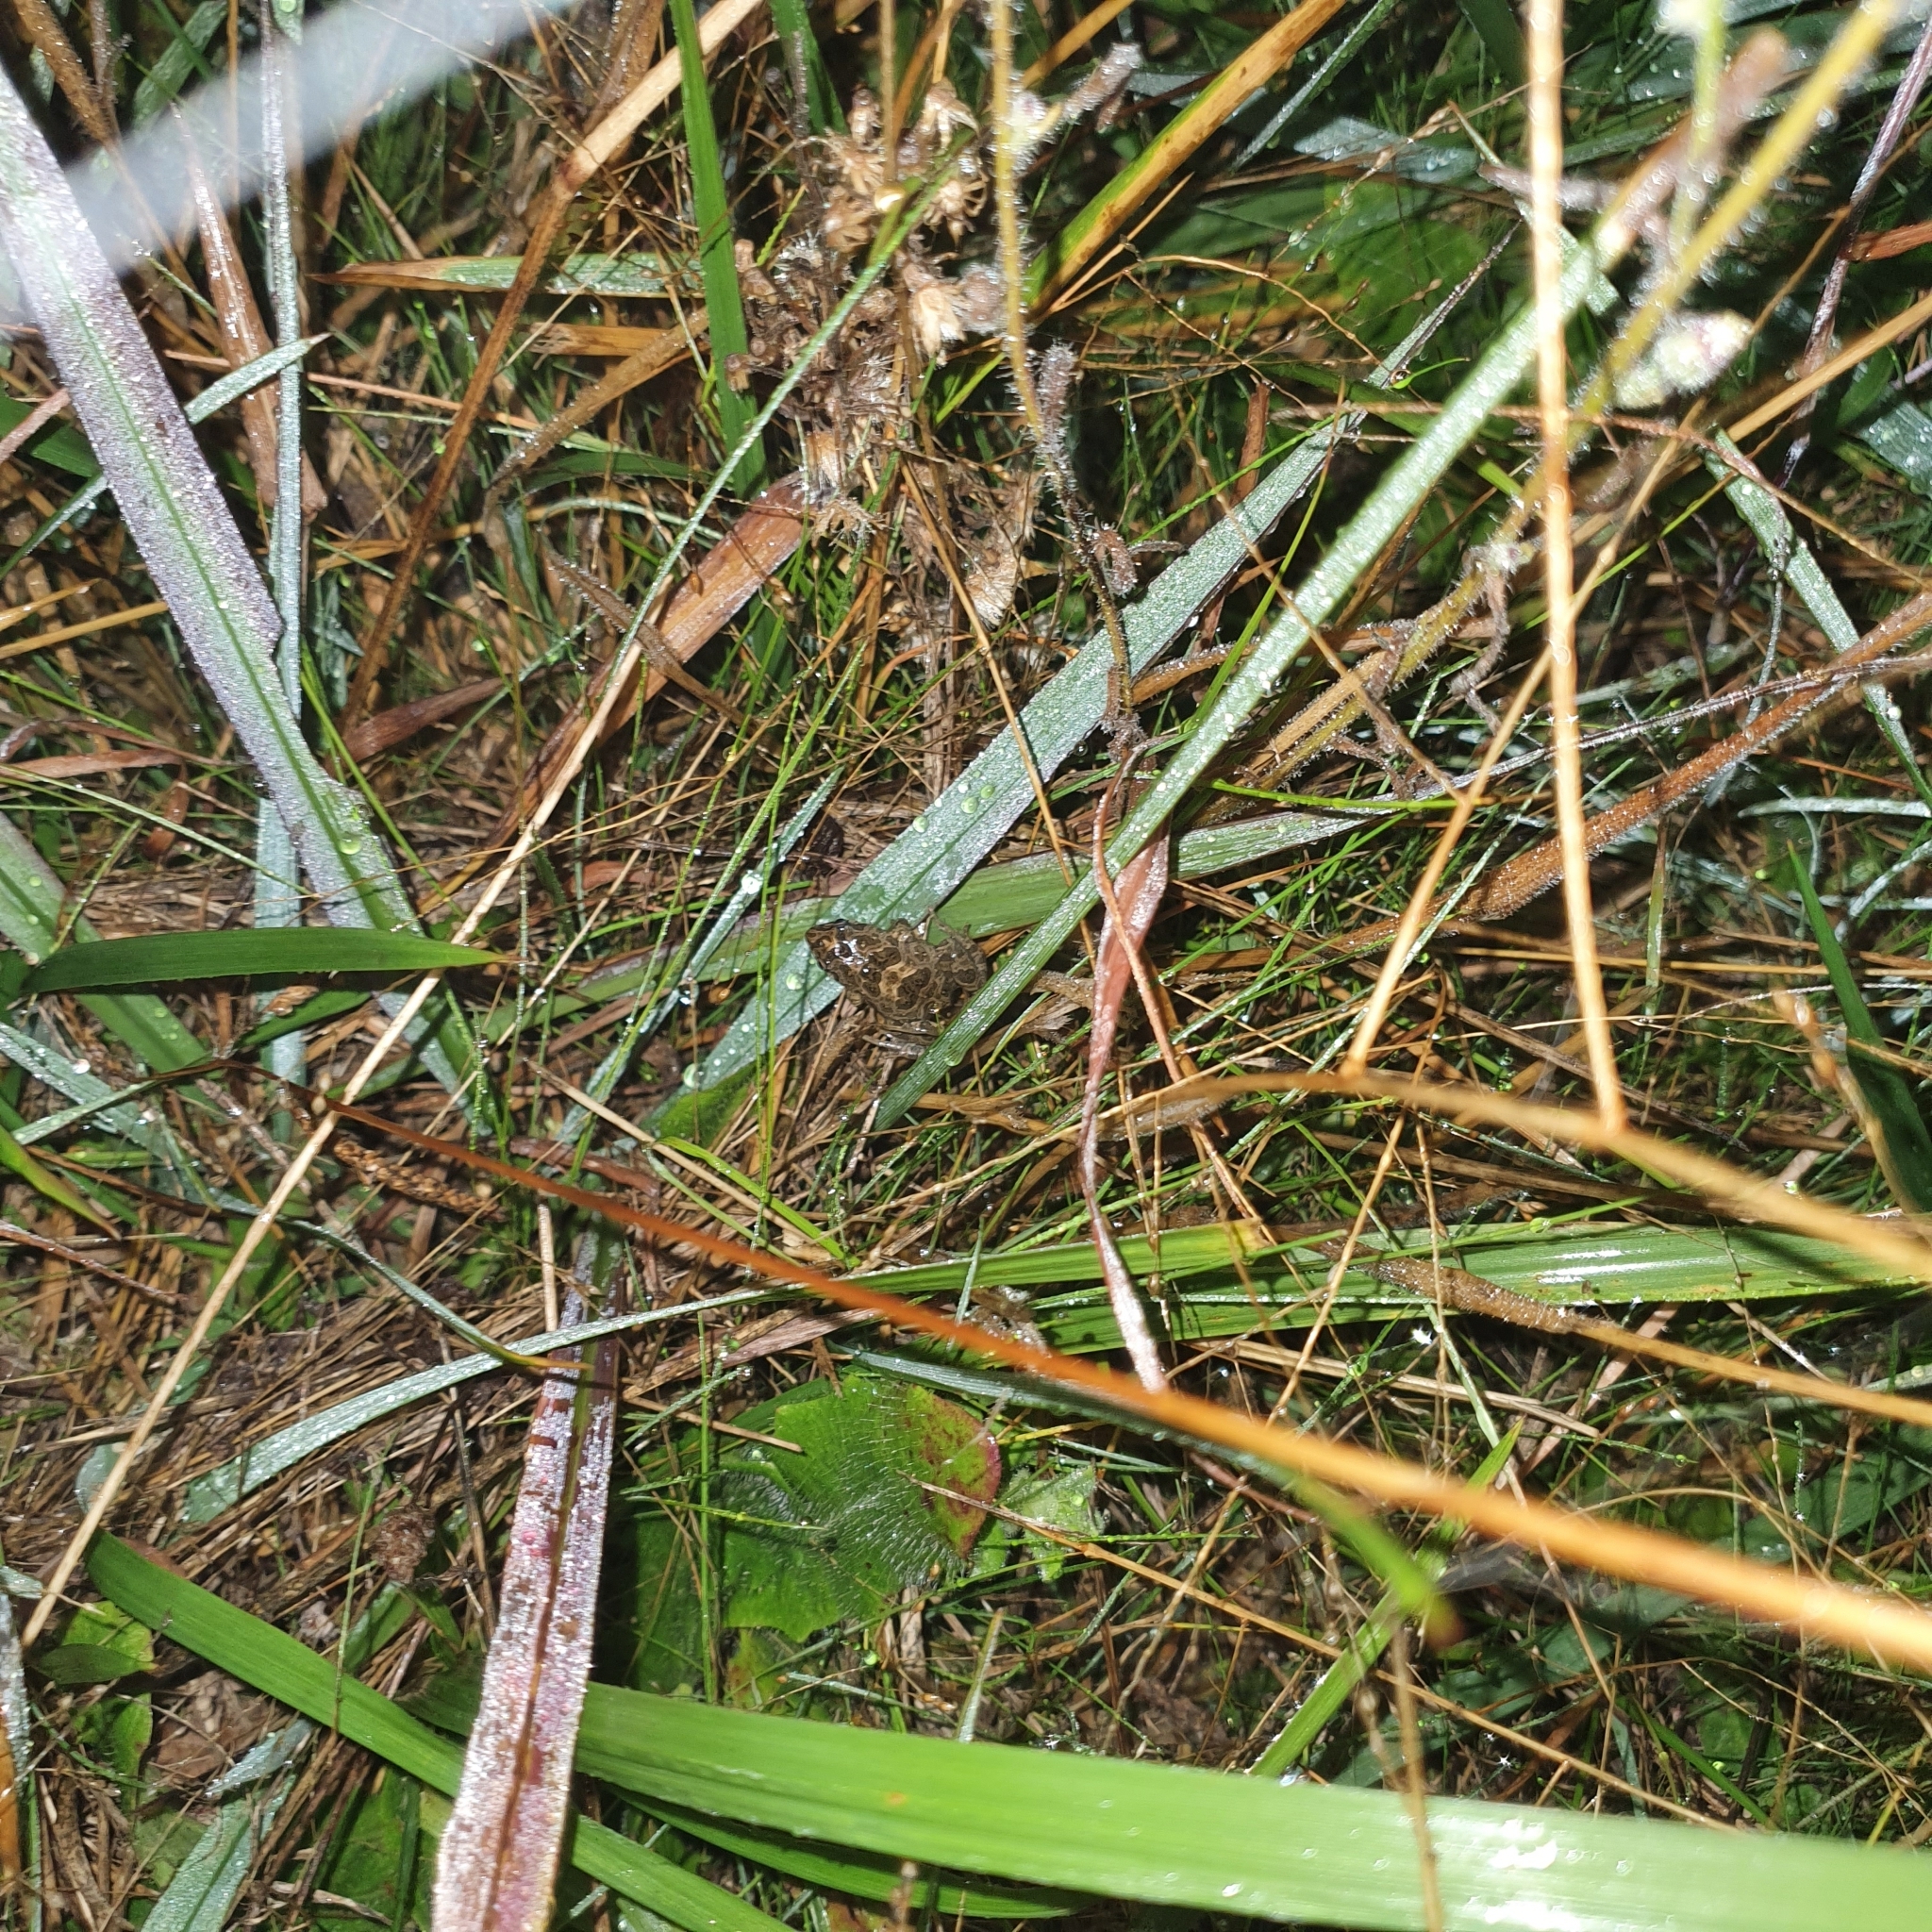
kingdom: Animalia
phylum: Chordata
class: Amphibia
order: Anura
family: Myobatrachidae
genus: Crinia
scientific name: Crinia signifera
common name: Brown froglet
